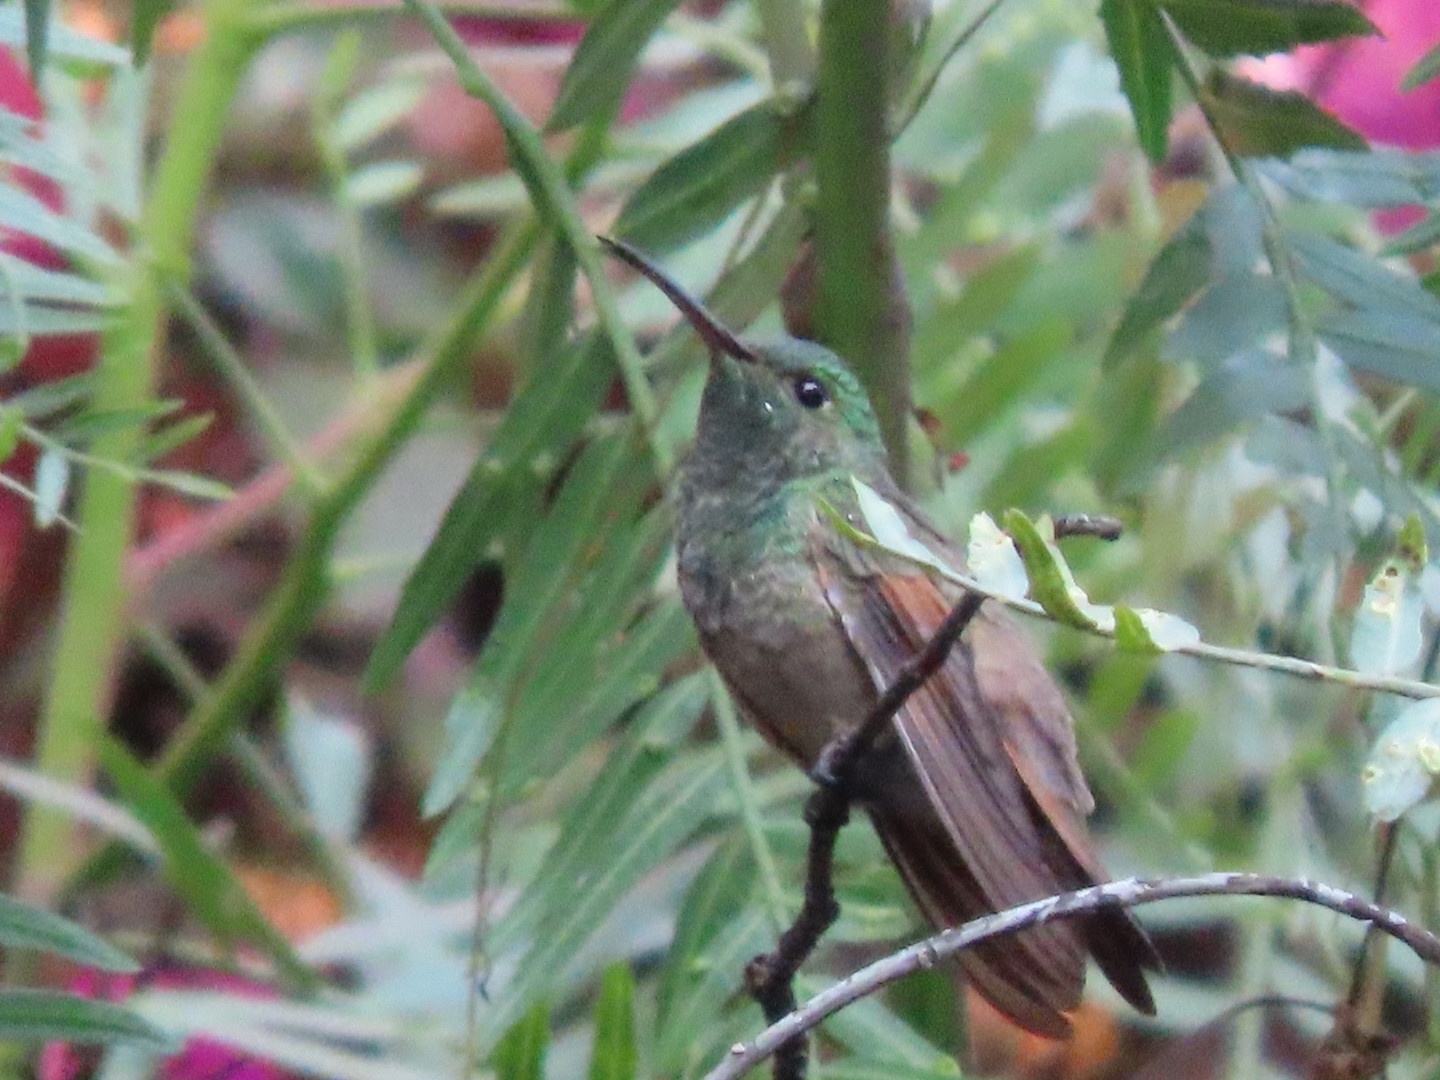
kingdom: Animalia
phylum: Chordata
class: Aves
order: Apodiformes
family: Trochilidae
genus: Saucerottia
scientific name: Saucerottia beryllina
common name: Berylline hummingbird
